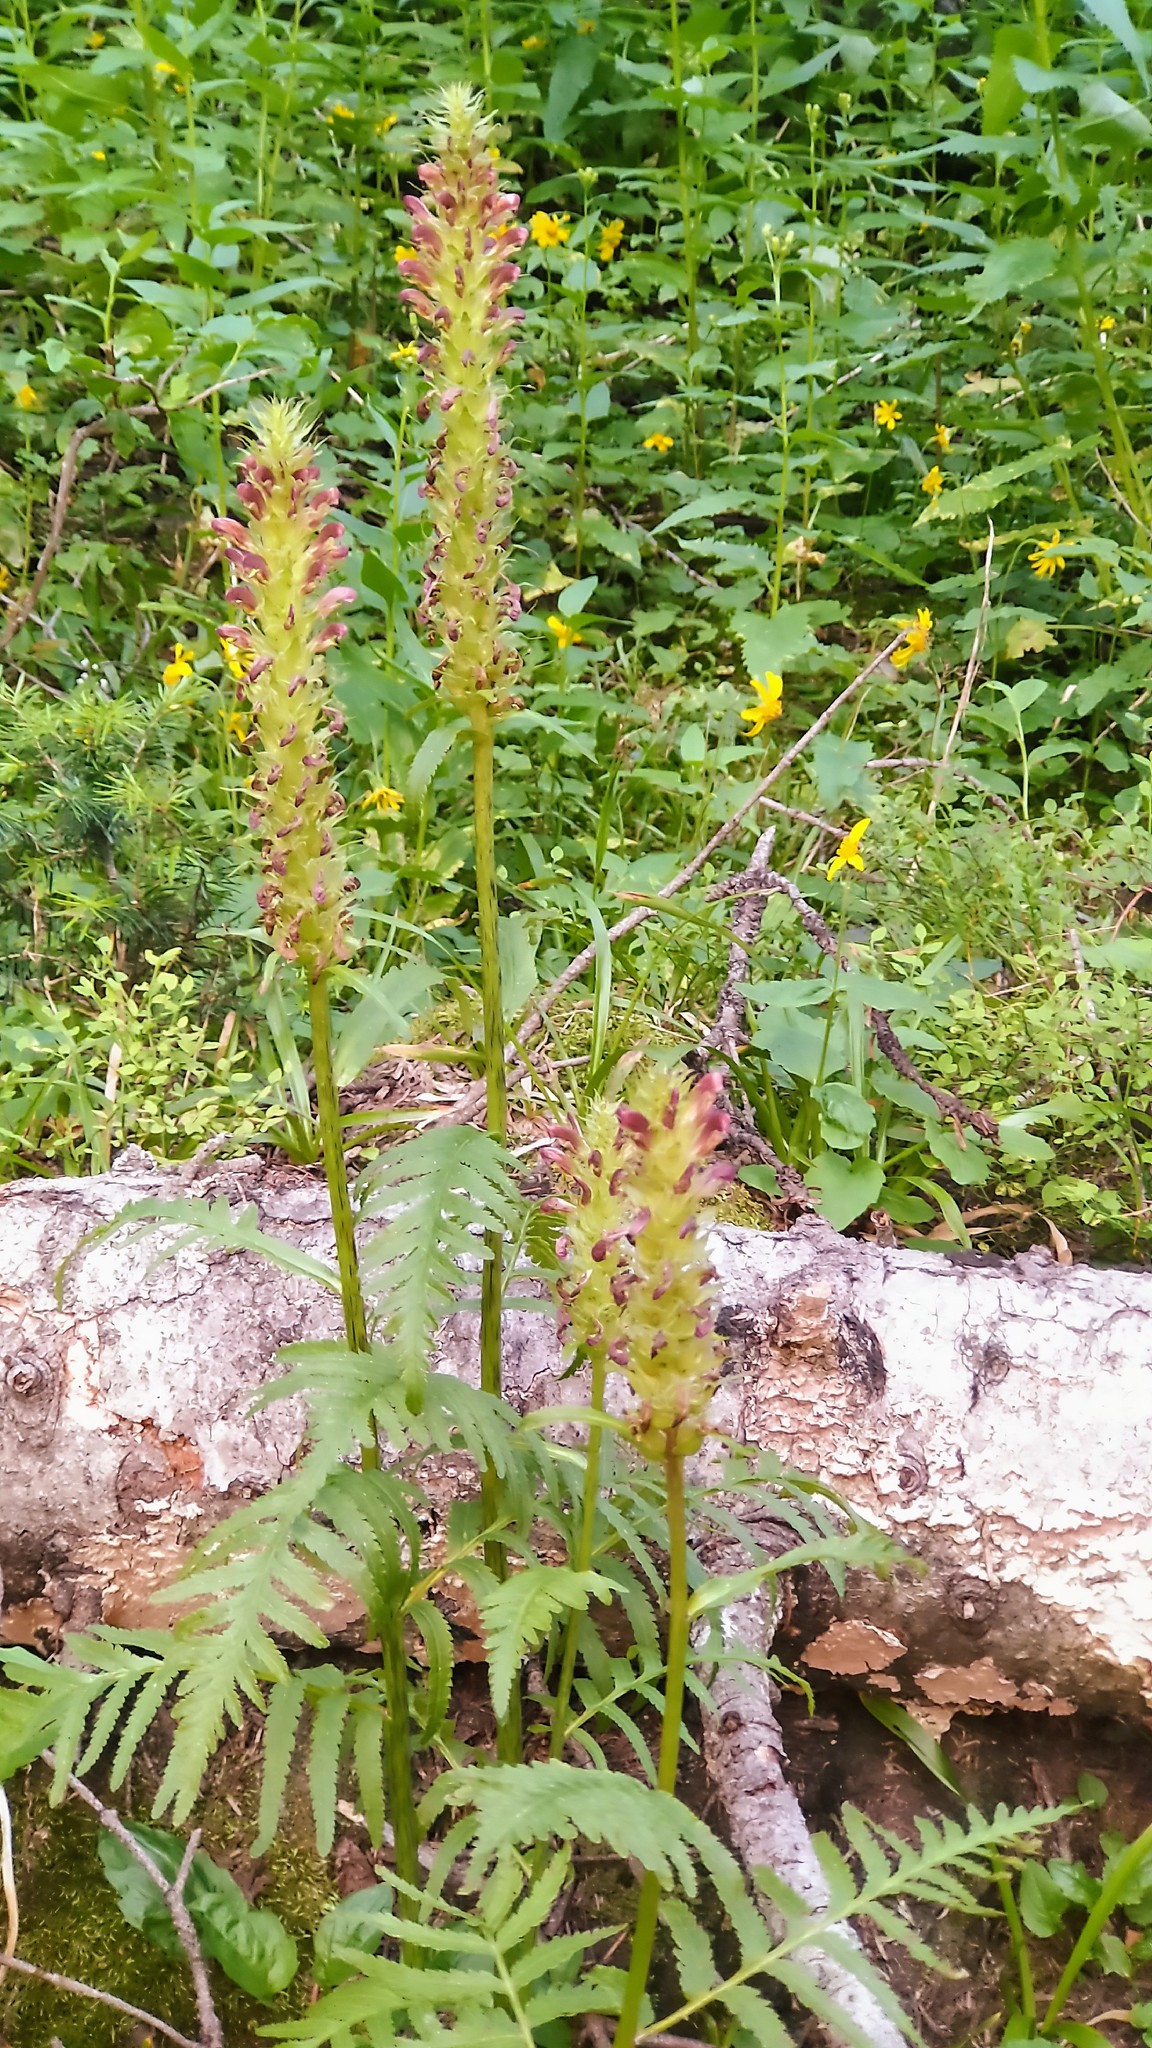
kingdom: Plantae
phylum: Tracheophyta
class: Magnoliopsida
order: Lamiales
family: Orobanchaceae
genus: Pedicularis
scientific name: Pedicularis bracteosa
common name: Bracted lousewort
